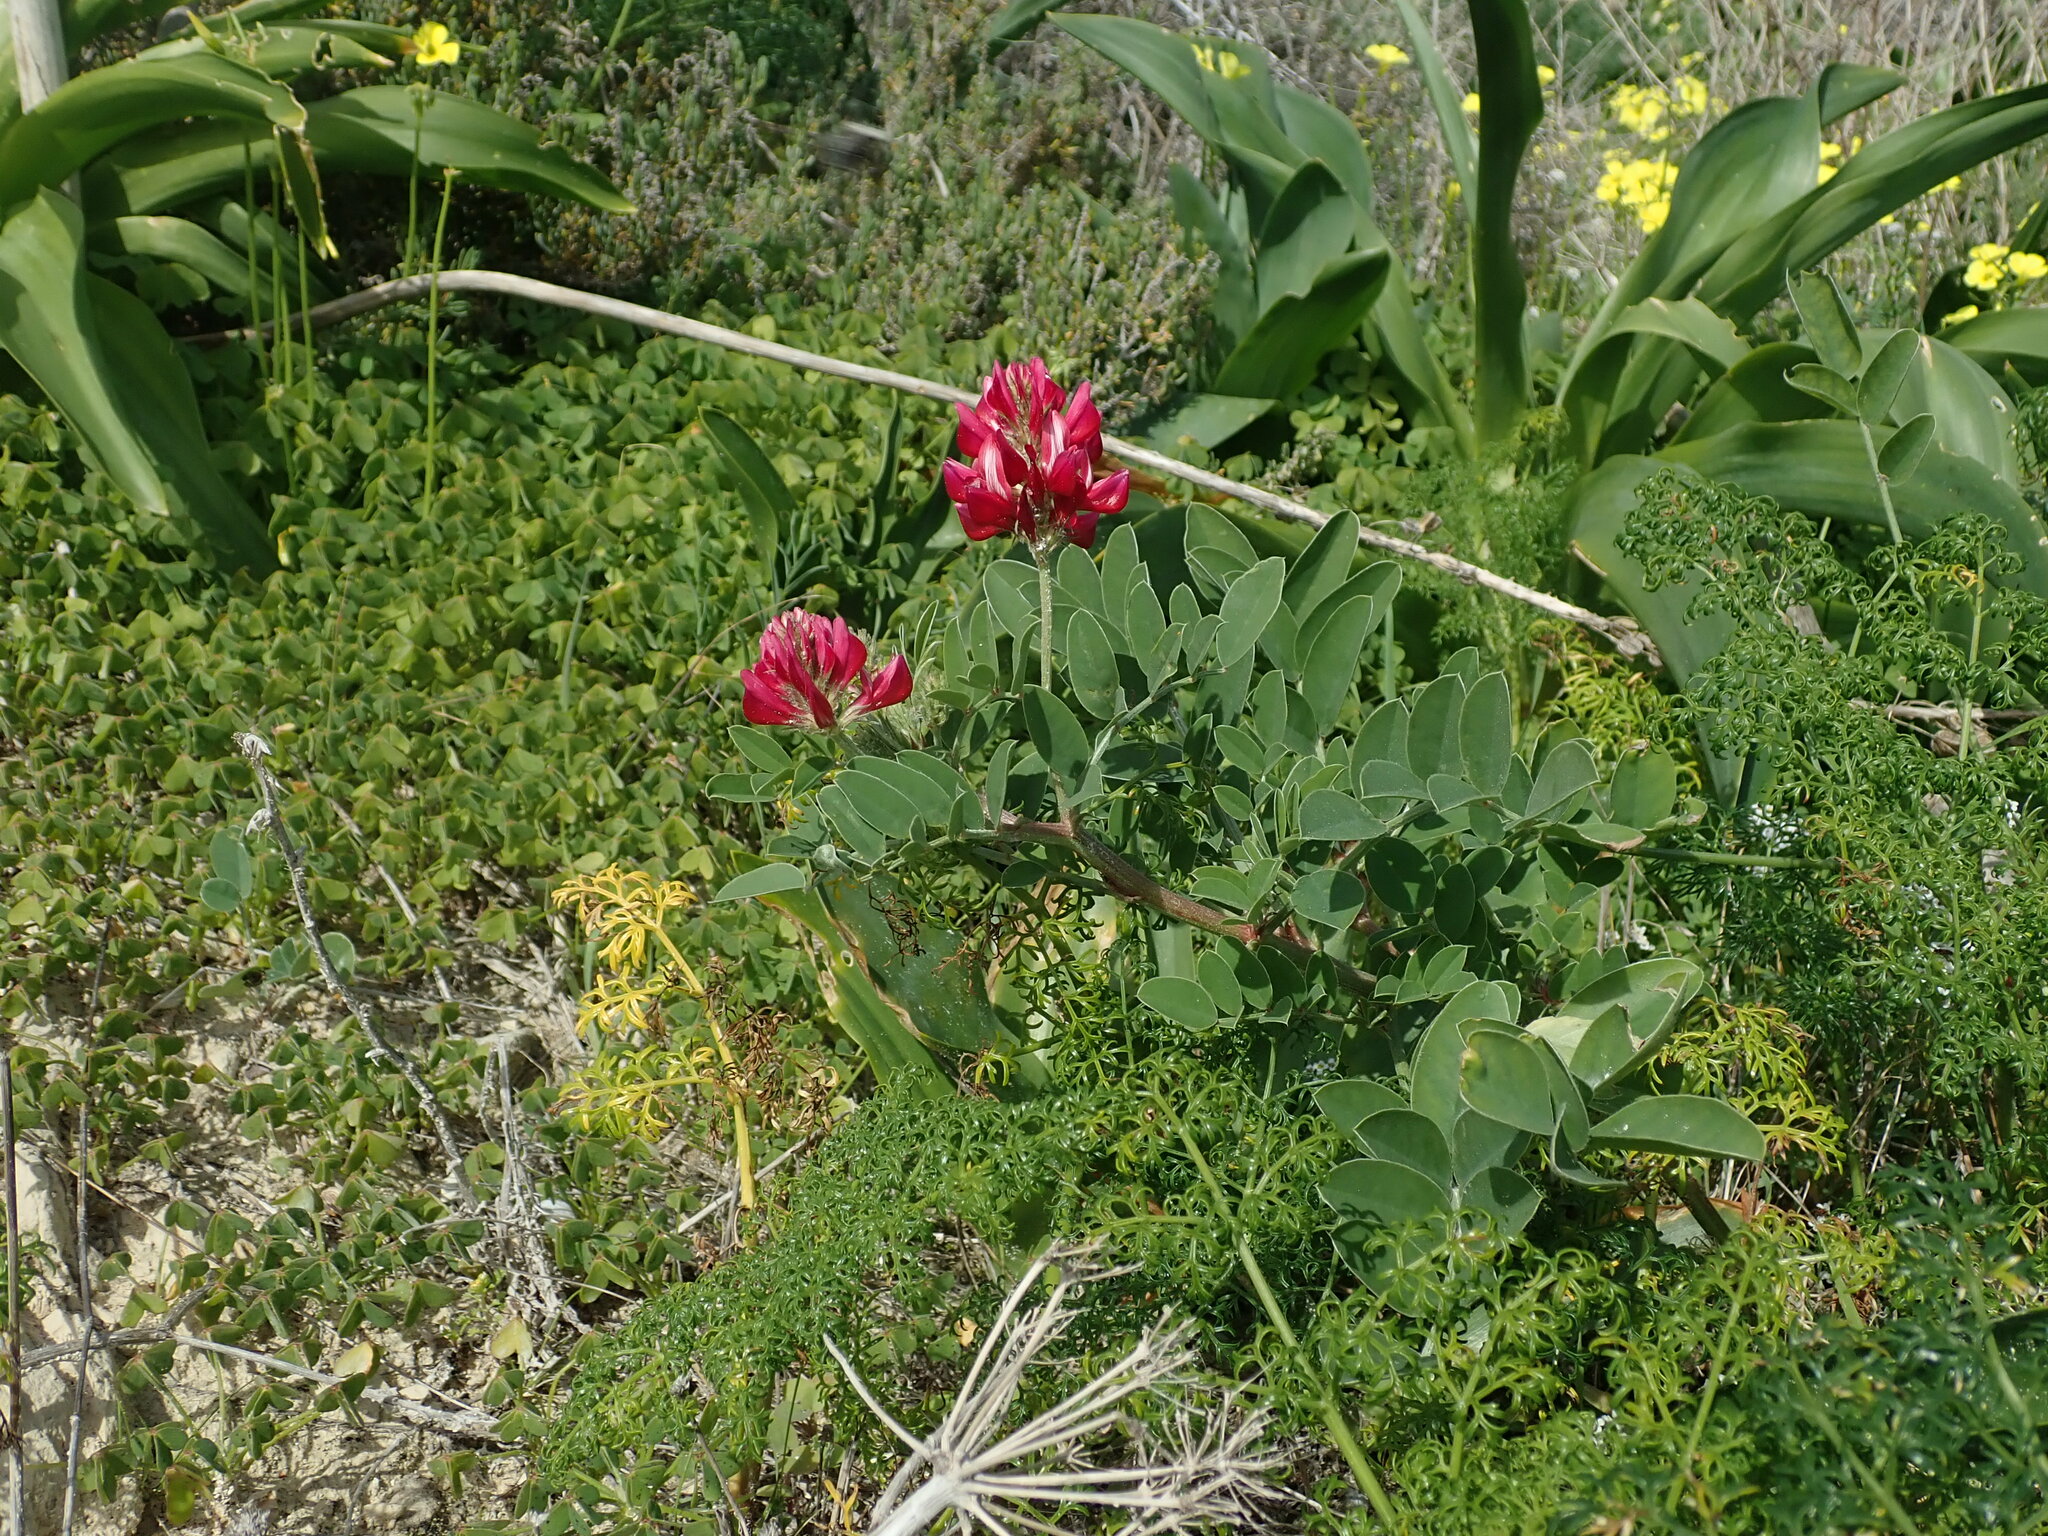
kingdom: Plantae
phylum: Tracheophyta
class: Magnoliopsida
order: Fabales
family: Fabaceae
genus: Sulla
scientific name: Sulla coronaria
